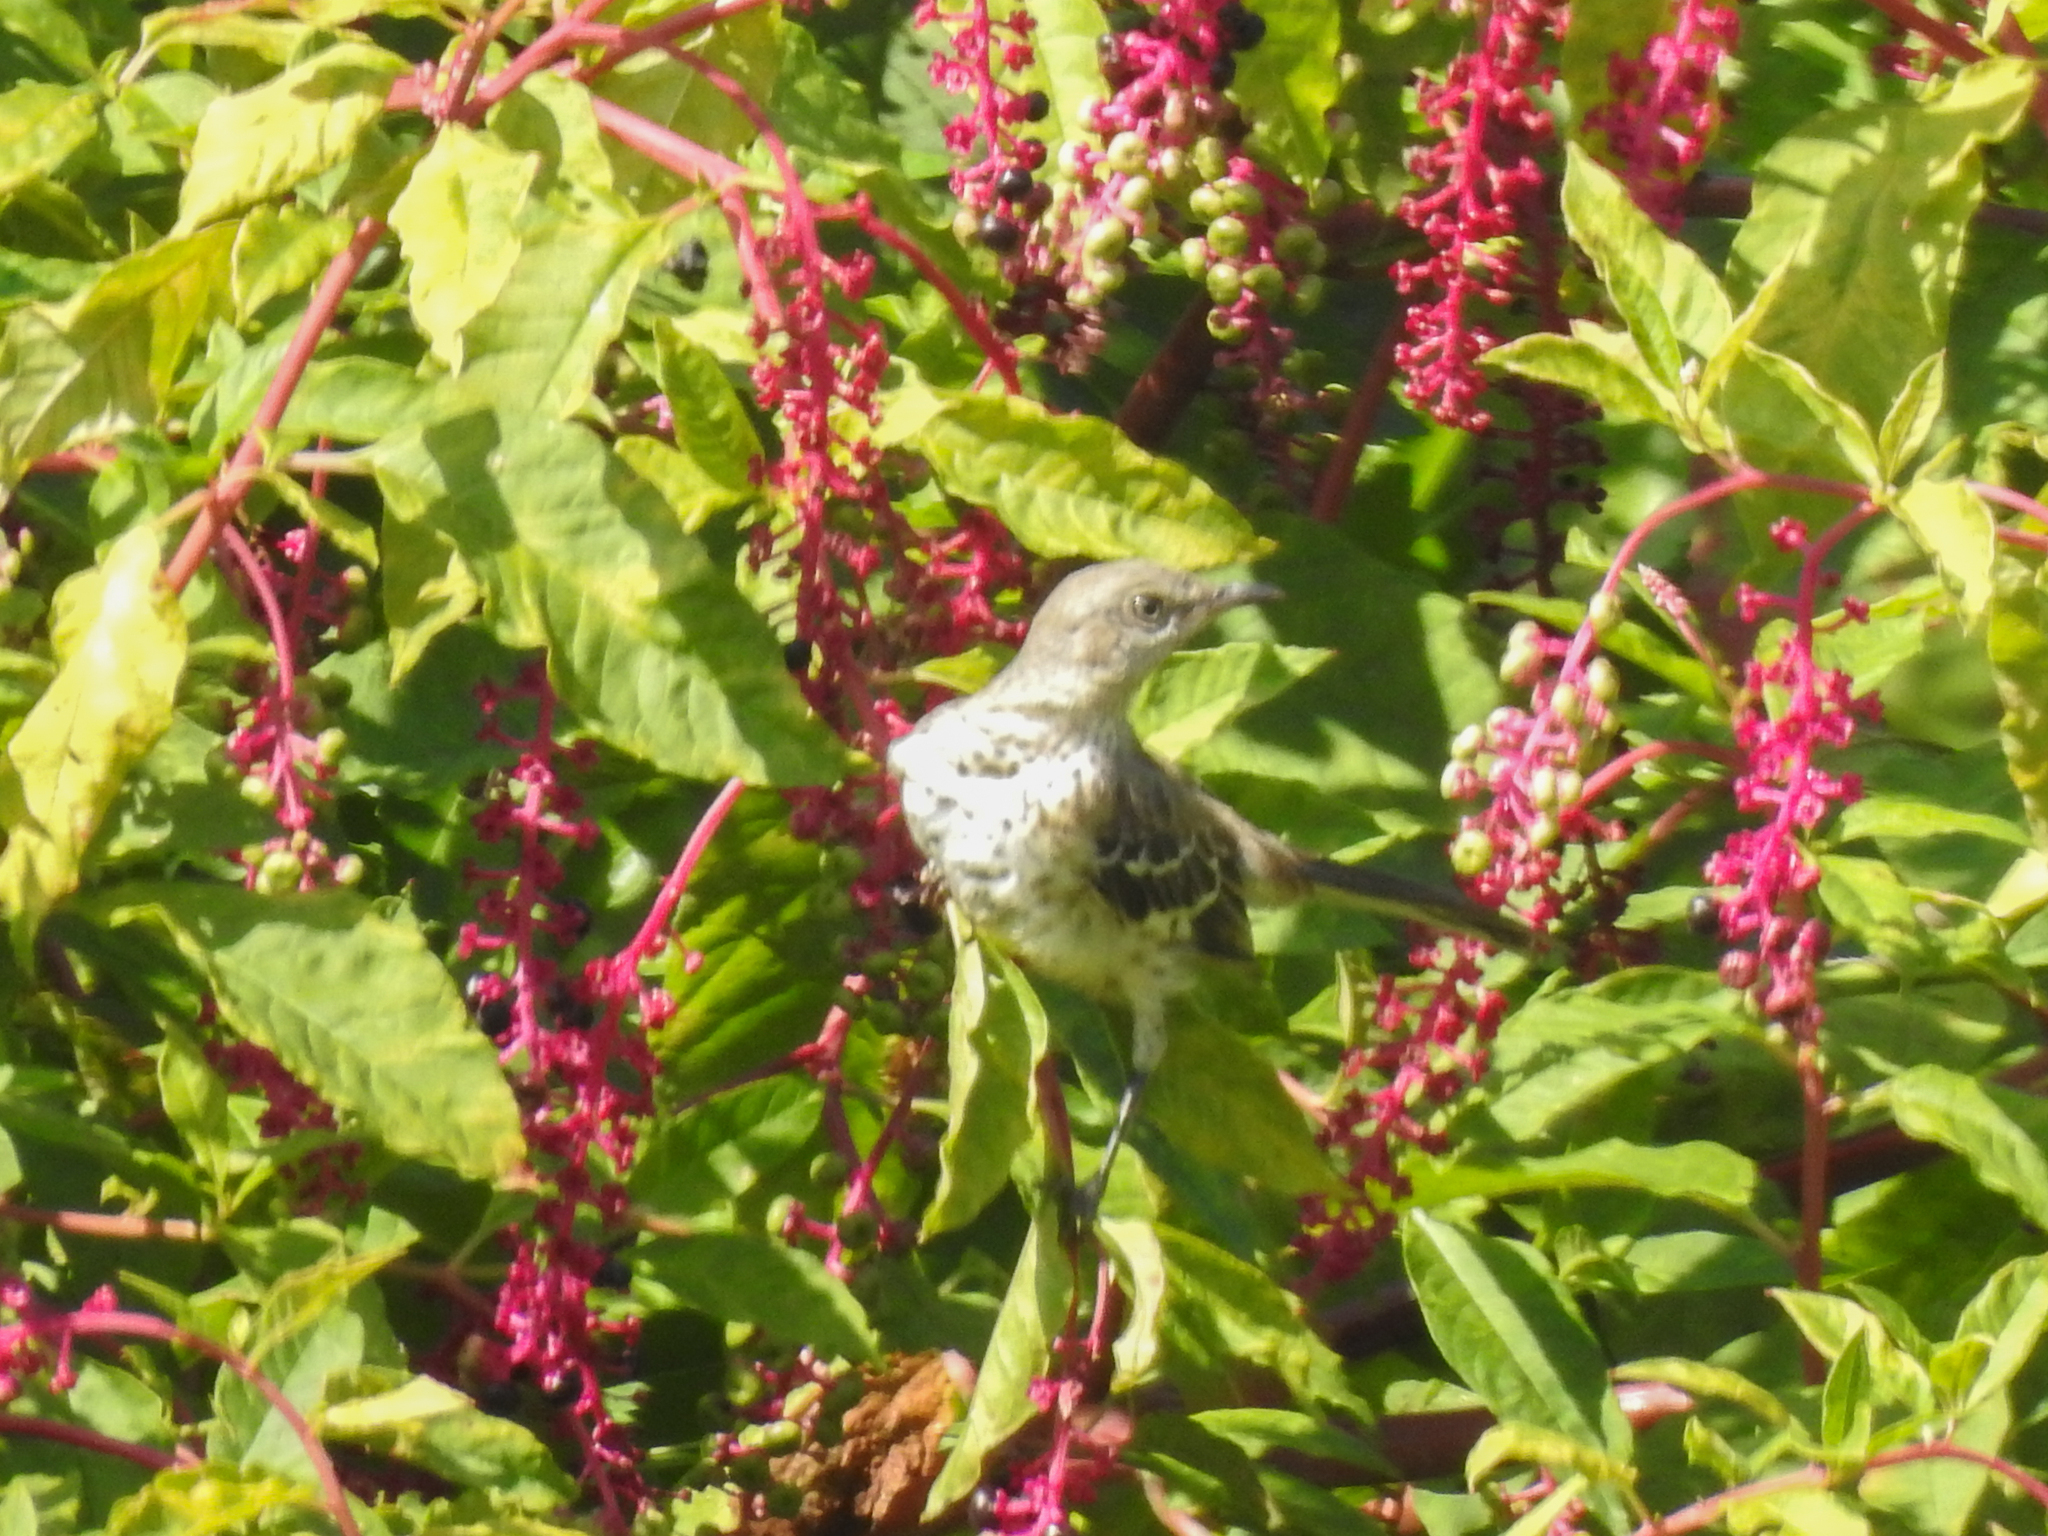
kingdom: Animalia
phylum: Chordata
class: Aves
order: Passeriformes
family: Mimidae
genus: Mimus
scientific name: Mimus polyglottos
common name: Northern mockingbird
